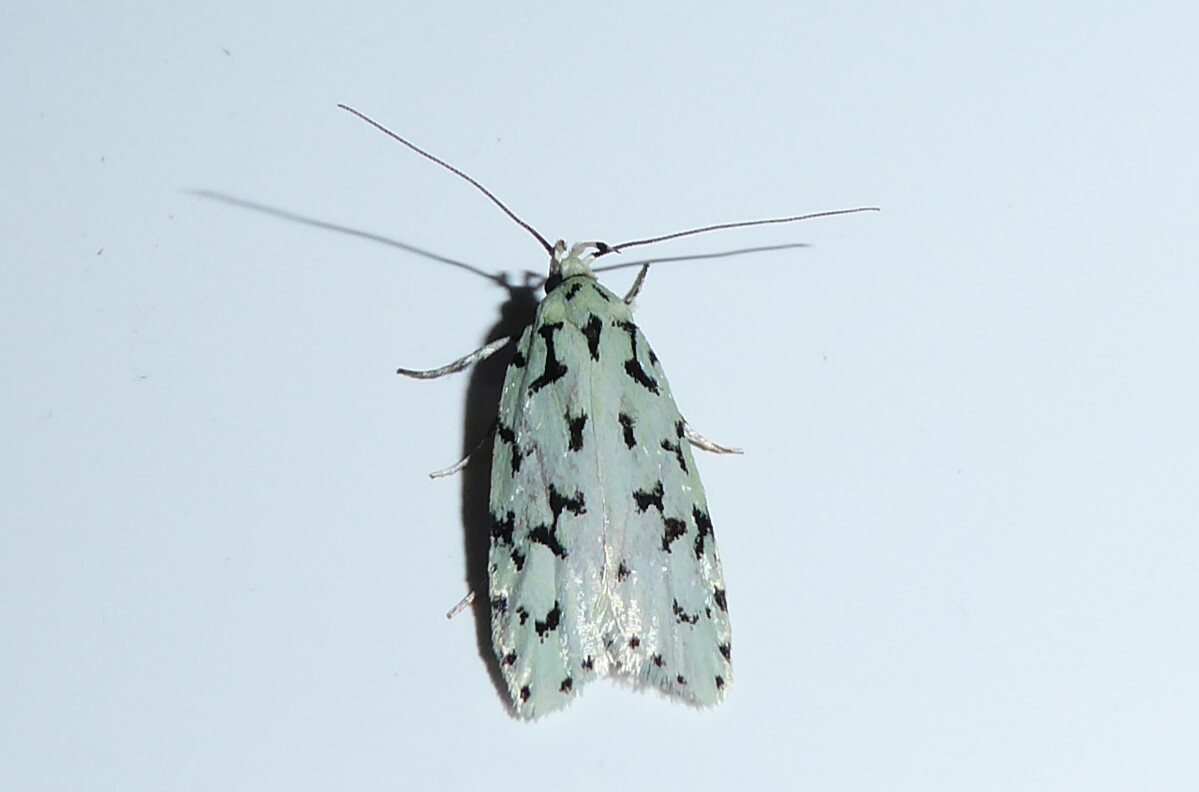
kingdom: Animalia
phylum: Arthropoda
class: Insecta
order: Lepidoptera
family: Oecophoridae
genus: Izatha
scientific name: Izatha huttoni
